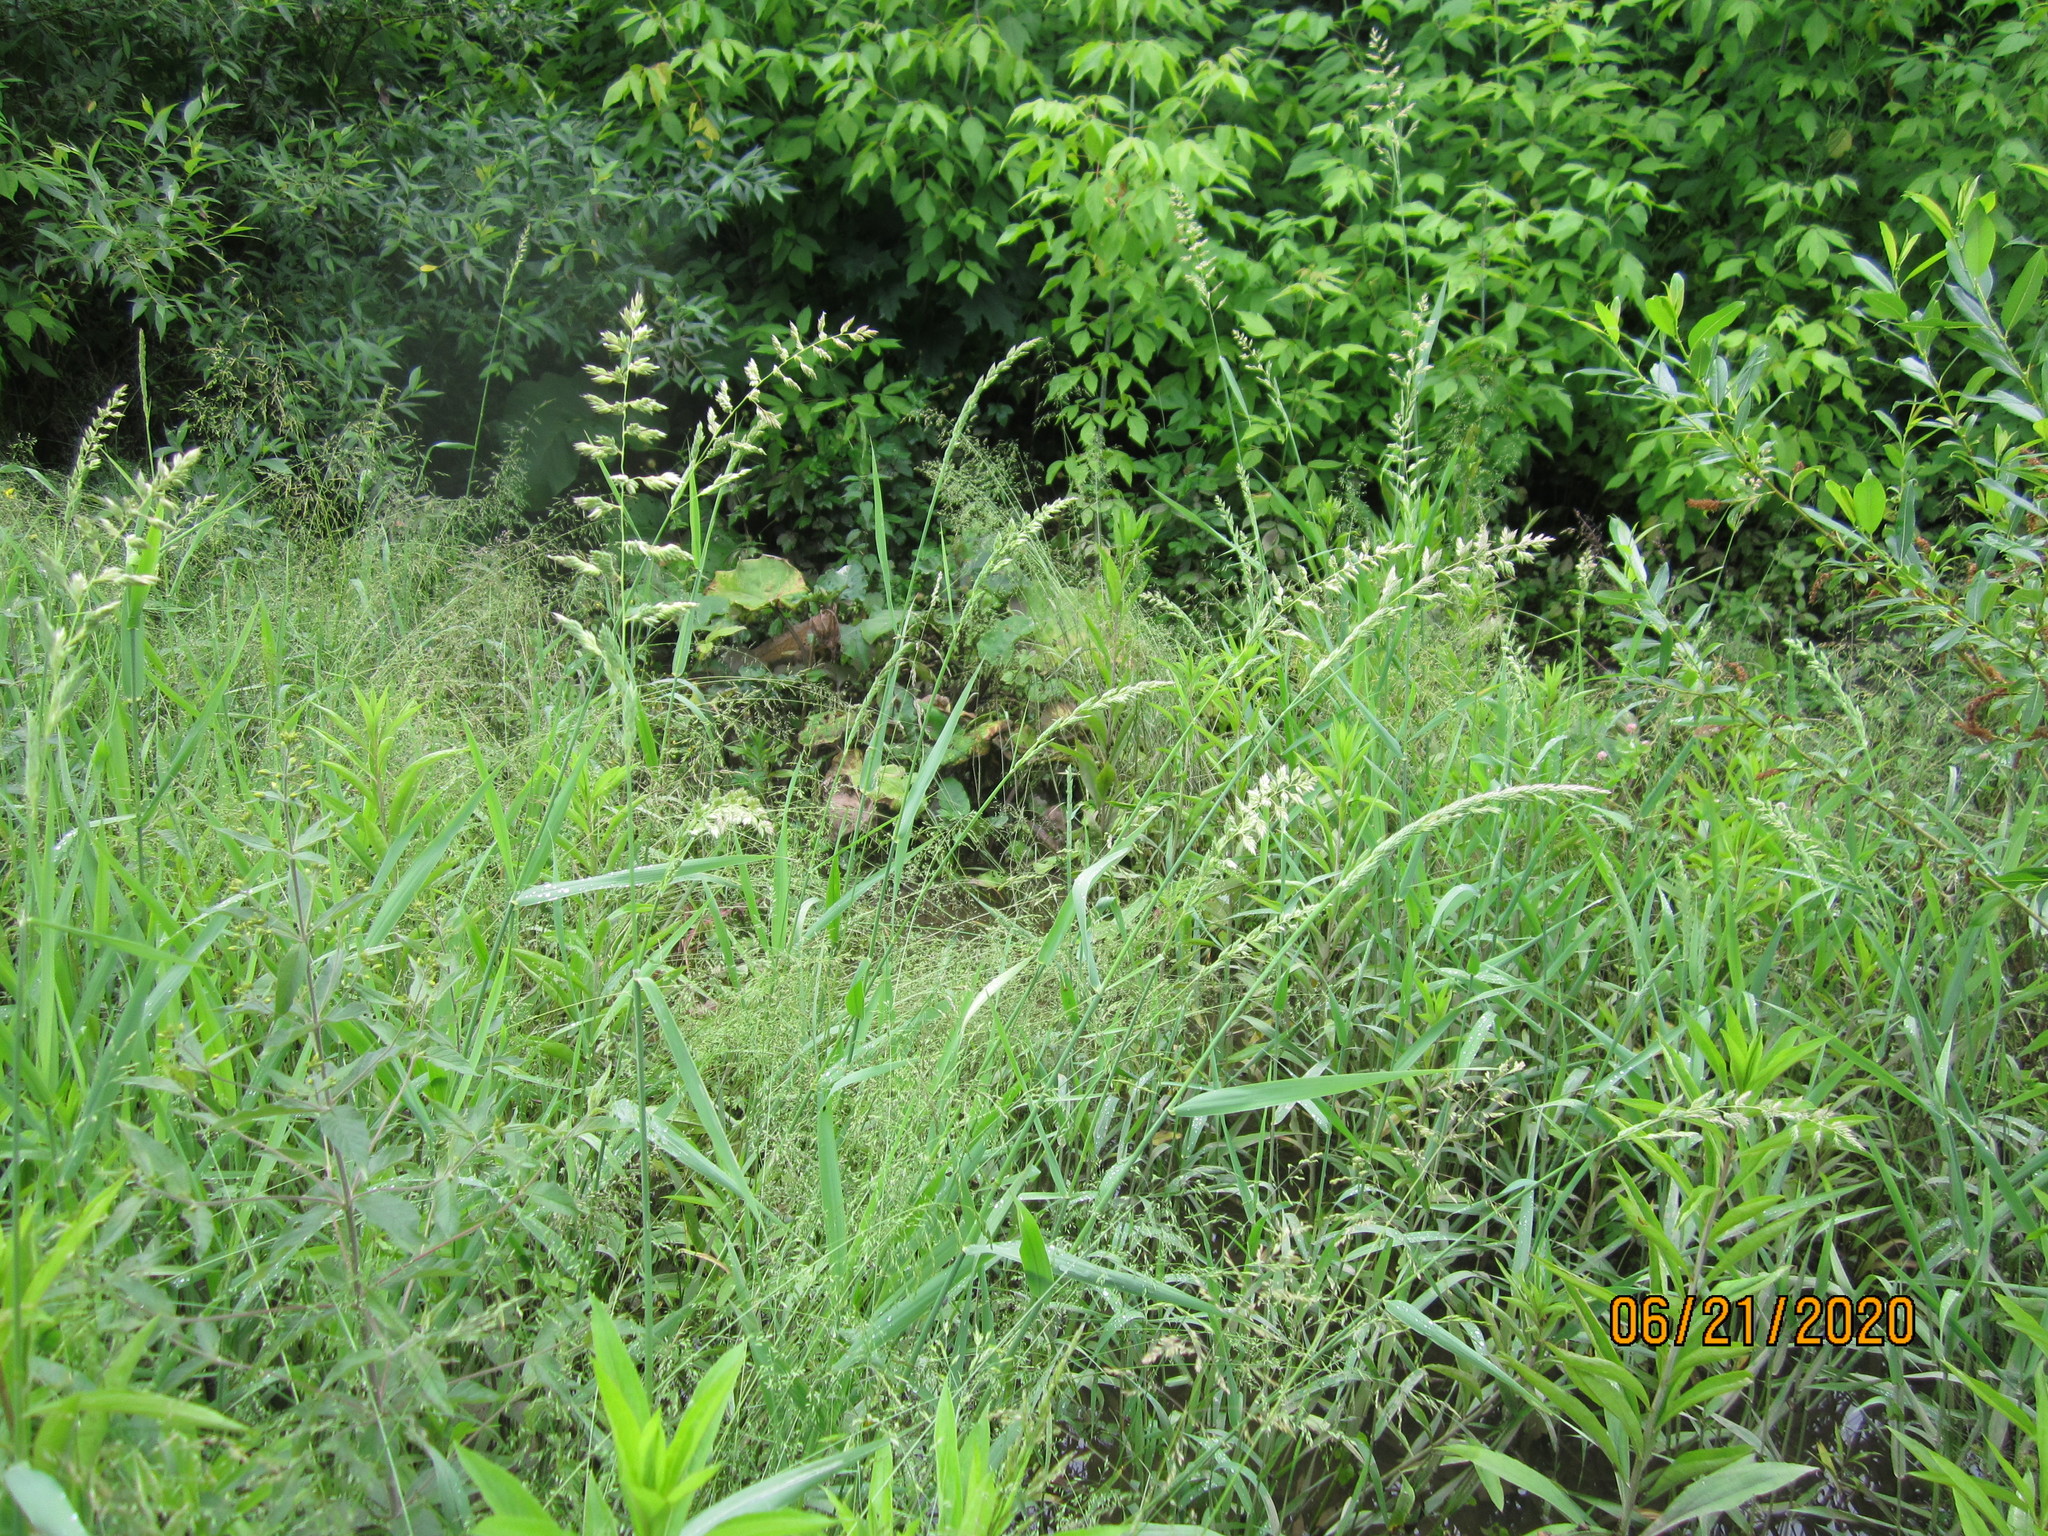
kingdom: Plantae
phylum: Tracheophyta
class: Liliopsida
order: Poales
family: Poaceae
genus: Phalaris
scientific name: Phalaris arundinacea
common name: Reed canary-grass
